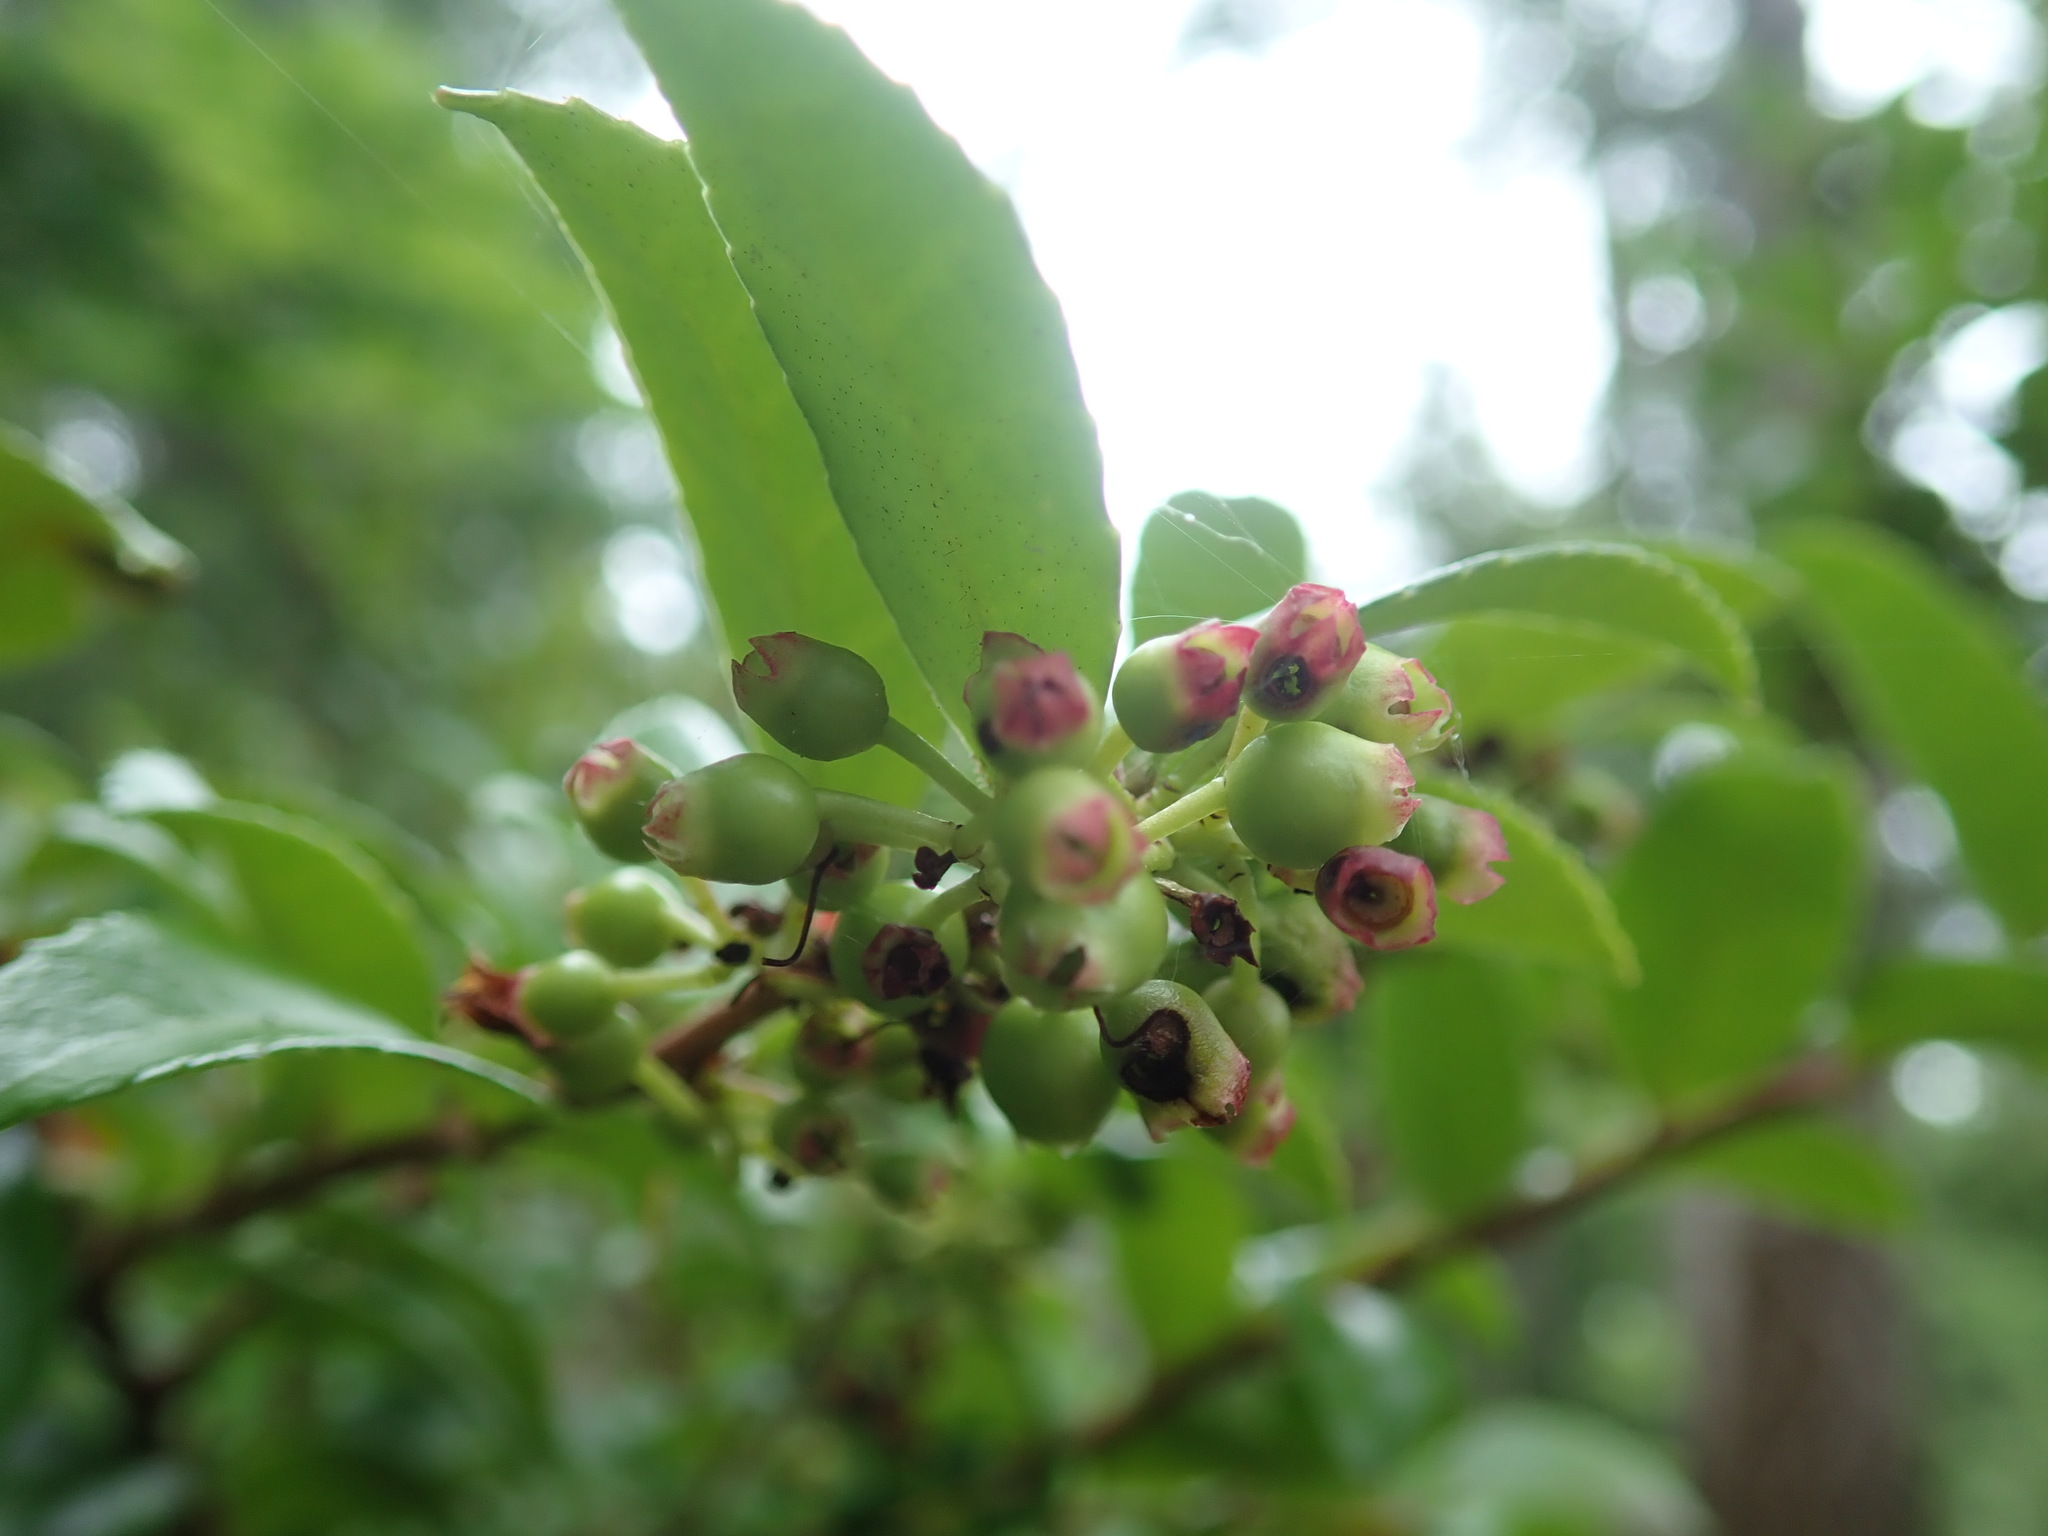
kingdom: Plantae
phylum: Tracheophyta
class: Magnoliopsida
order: Ericales
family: Ericaceae
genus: Vaccinium
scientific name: Vaccinium ovatum
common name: California-huckleberry
